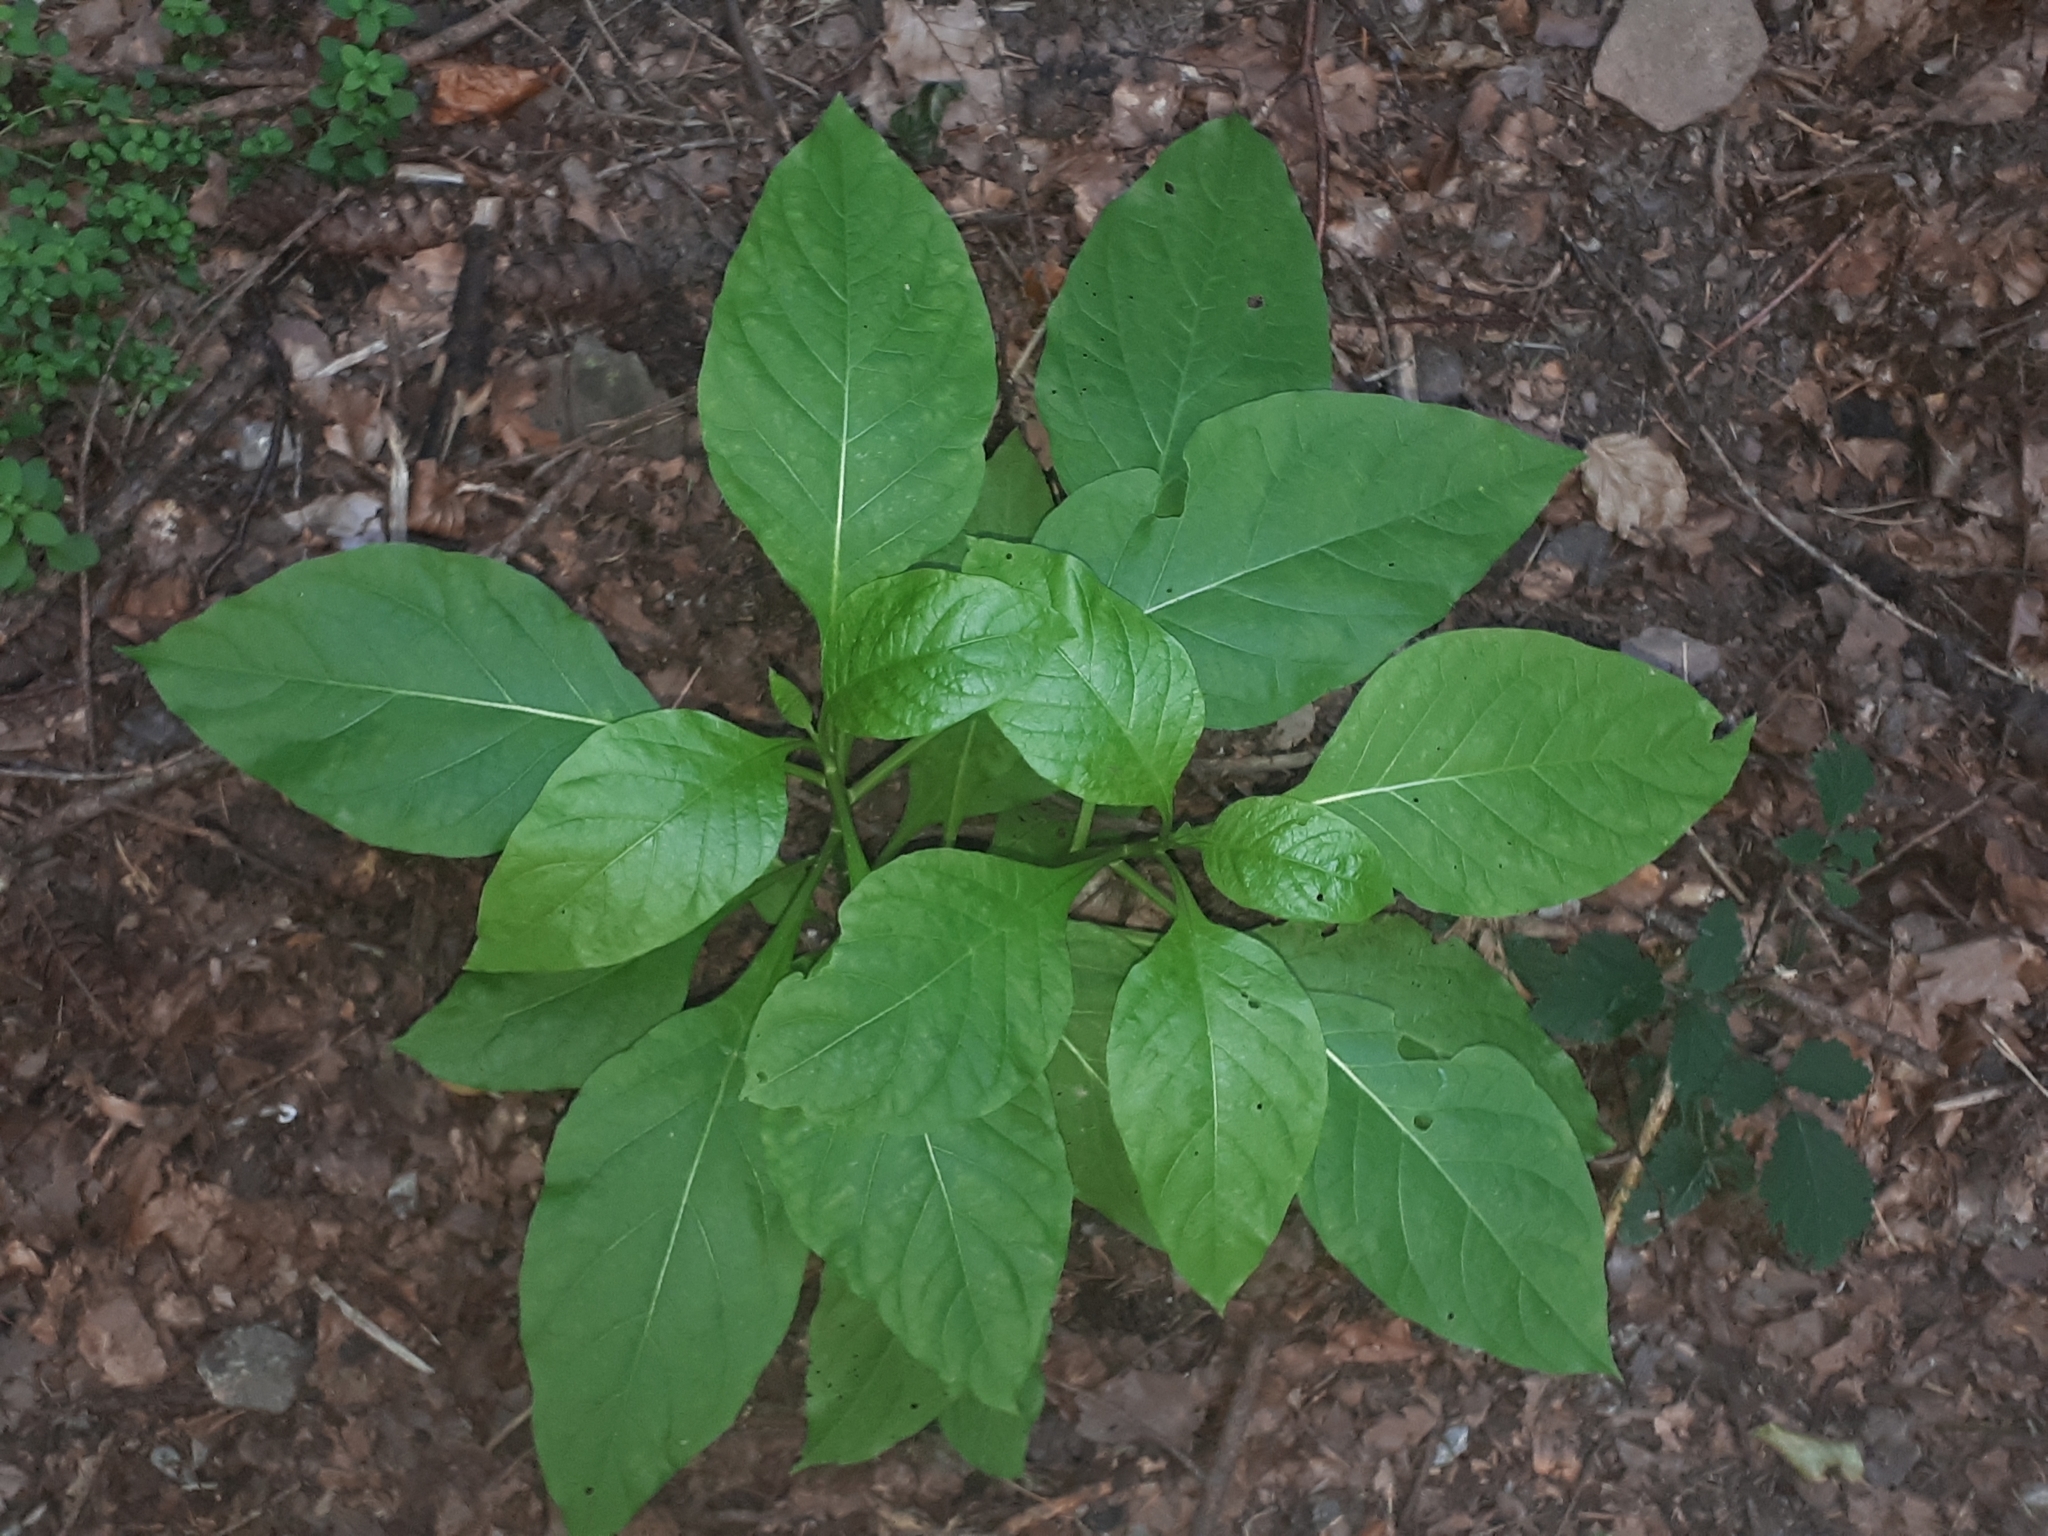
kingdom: Plantae
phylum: Tracheophyta
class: Magnoliopsida
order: Solanales
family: Solanaceae
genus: Atropa
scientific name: Atropa belladonna
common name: Deadly nightshade
